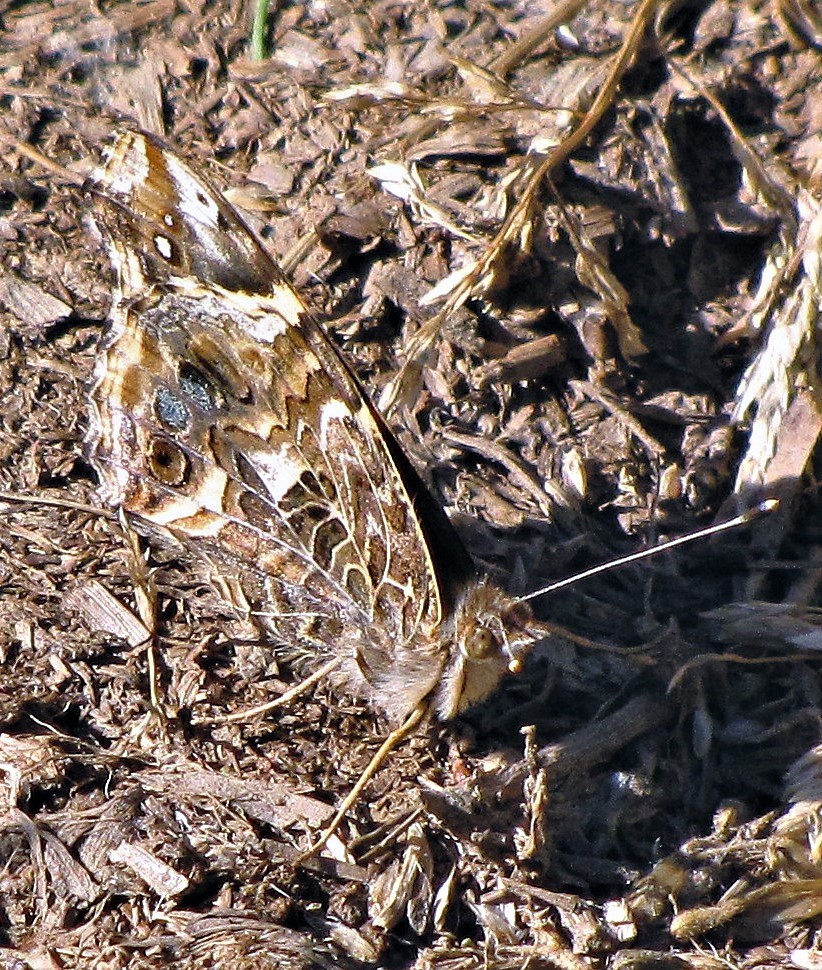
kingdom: Animalia
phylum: Arthropoda
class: Insecta
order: Lepidoptera
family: Nymphalidae
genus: Vanessa
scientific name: Vanessa carye
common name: Subtropical lady
